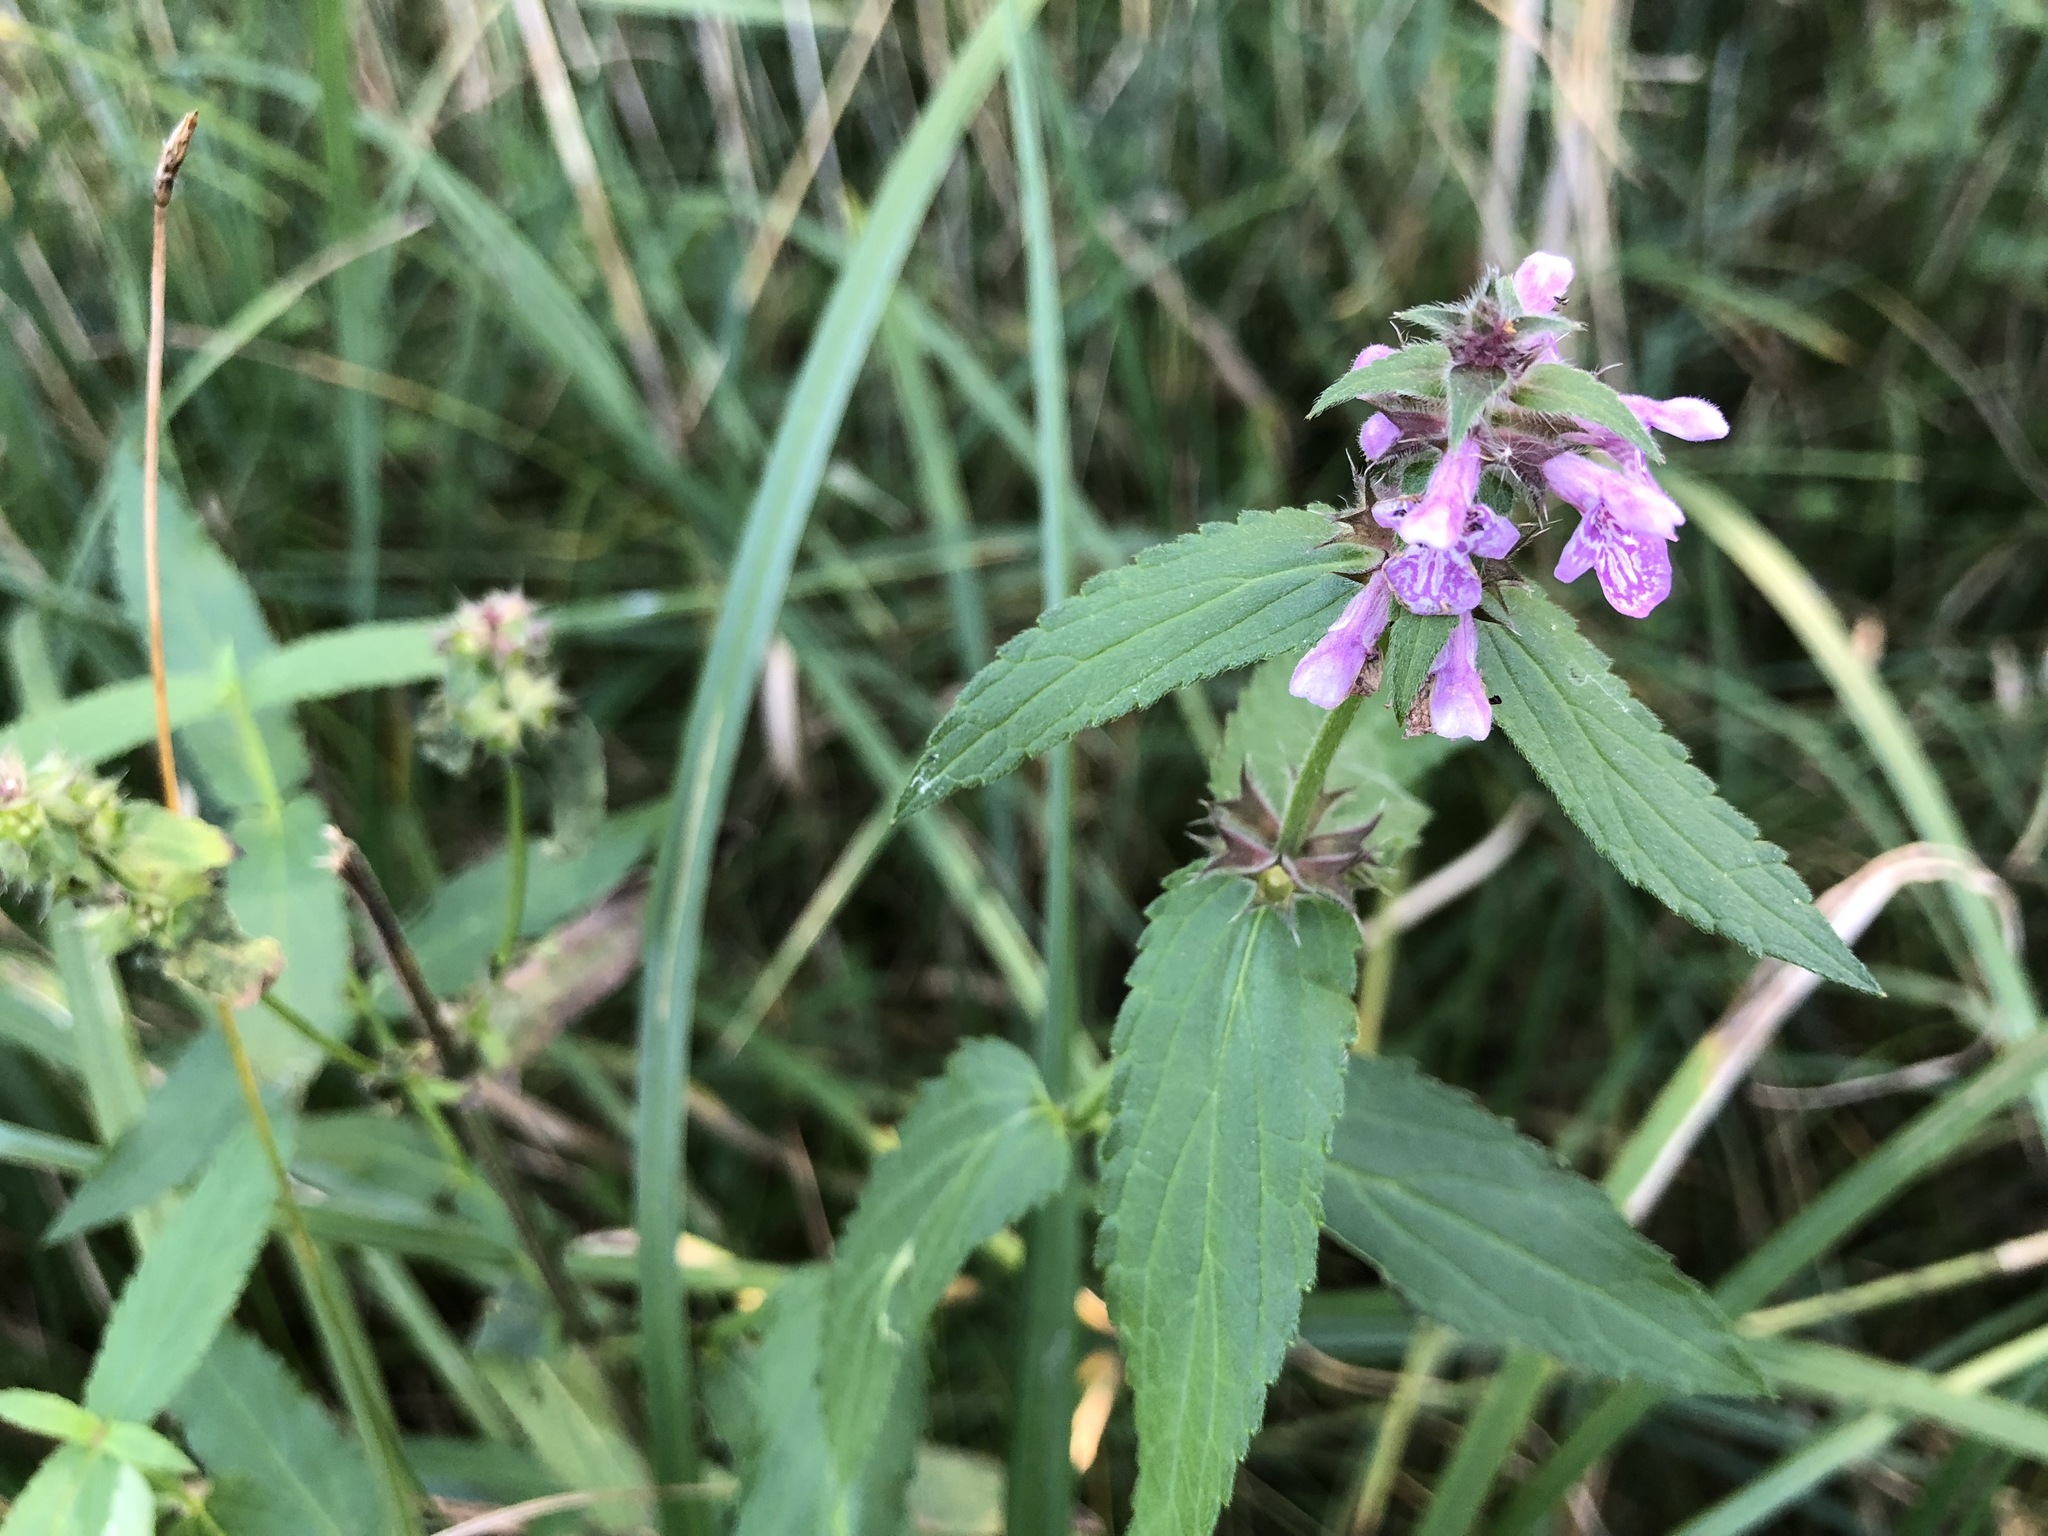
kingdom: Plantae
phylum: Tracheophyta
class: Magnoliopsida
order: Lamiales
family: Lamiaceae
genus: Stachys
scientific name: Stachys palustris
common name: Marsh woundwort
